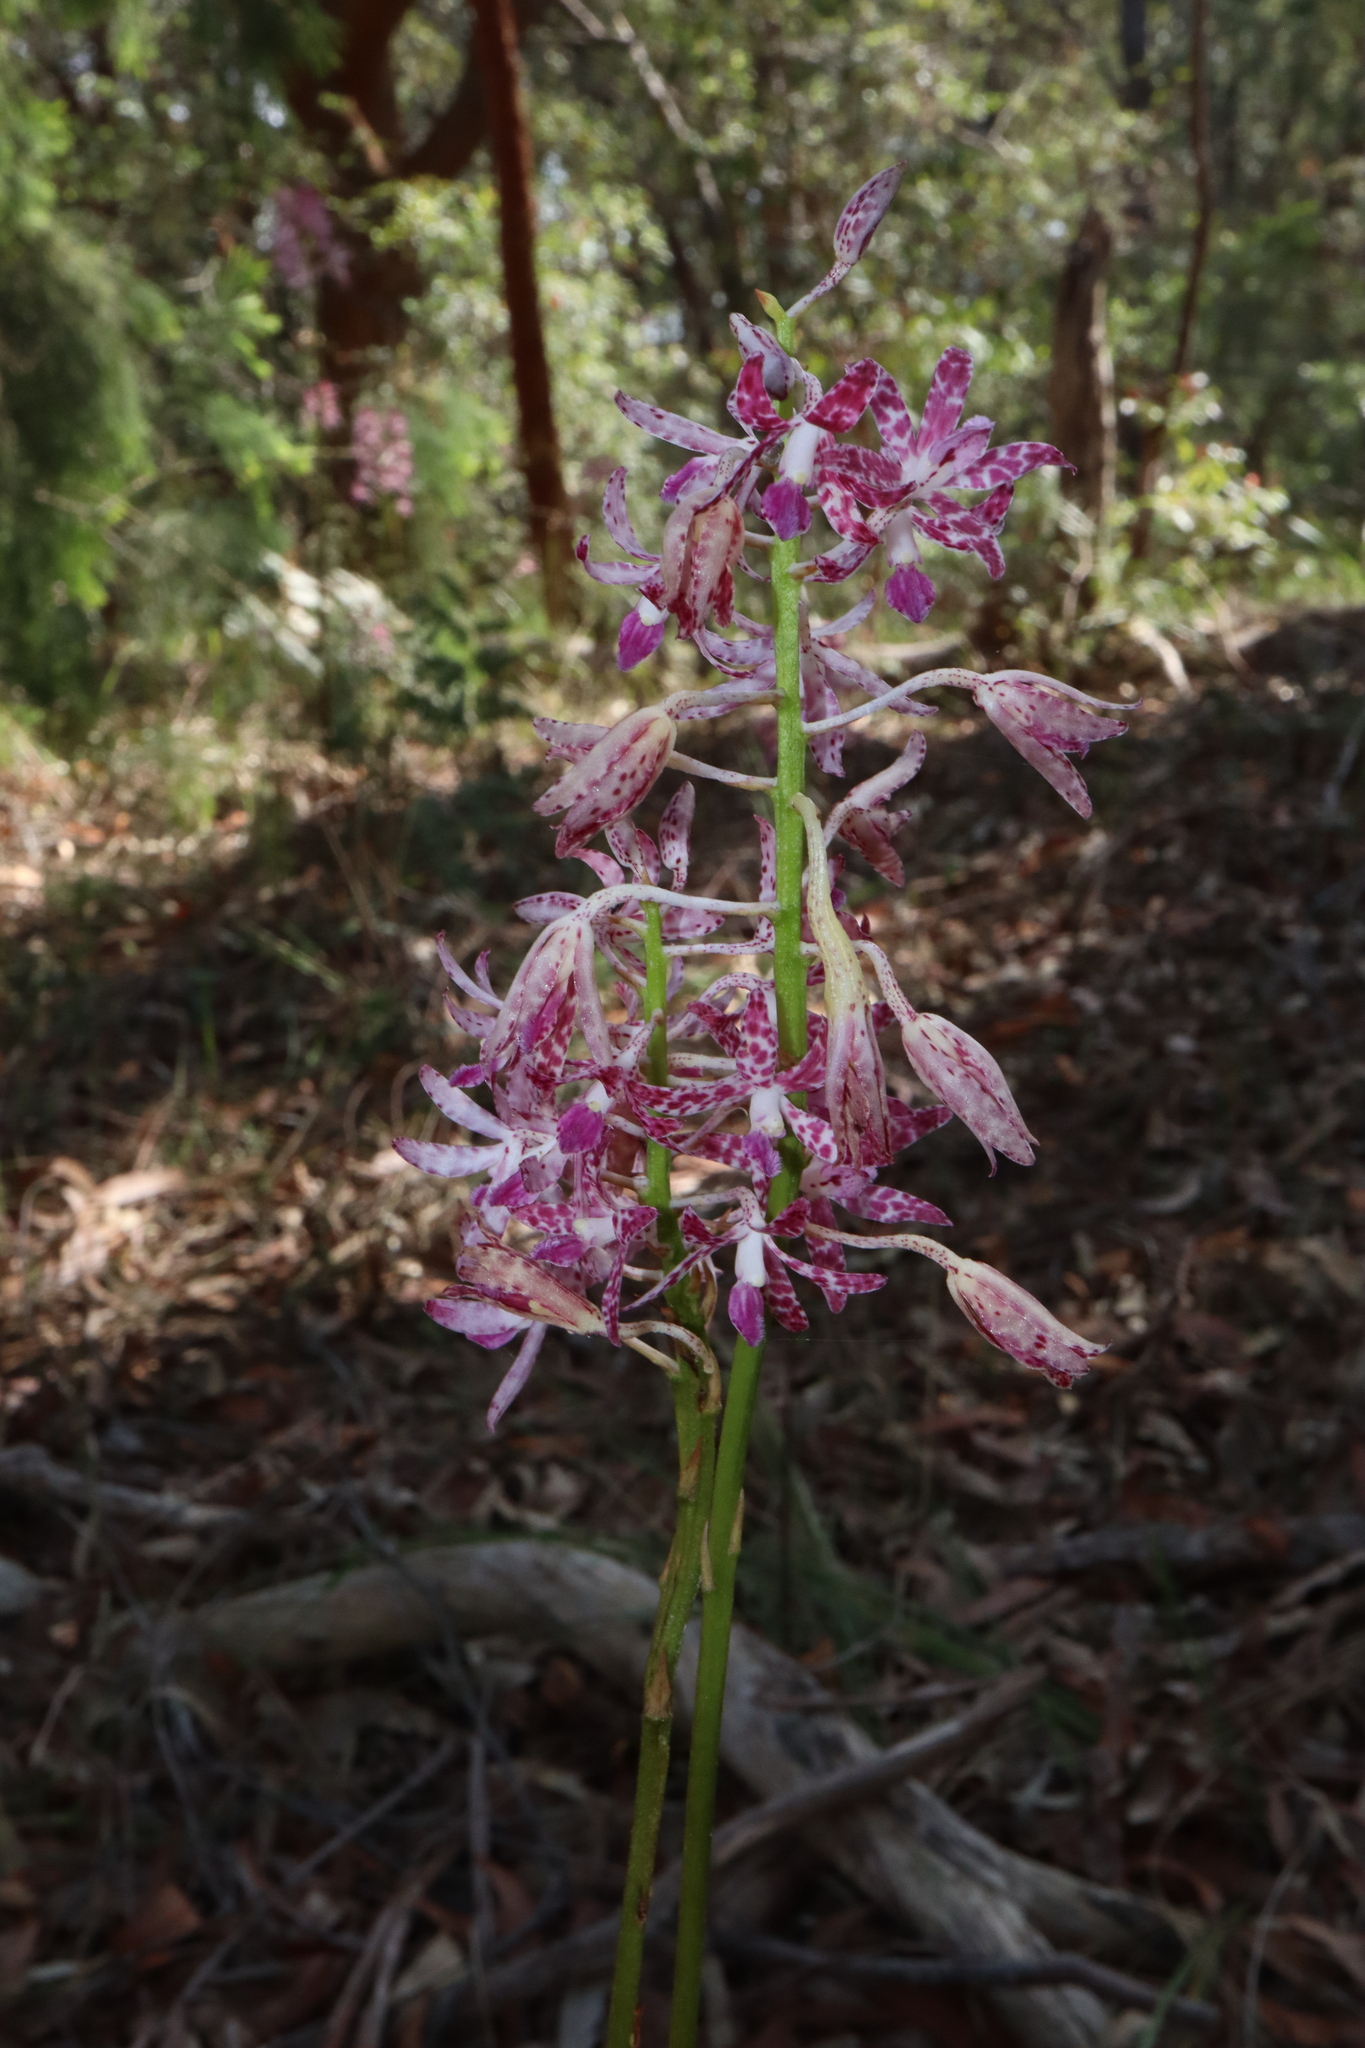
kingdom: Plantae
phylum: Tracheophyta
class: Liliopsida
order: Asparagales
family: Orchidaceae
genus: Dipodium
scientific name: Dipodium variegatum
